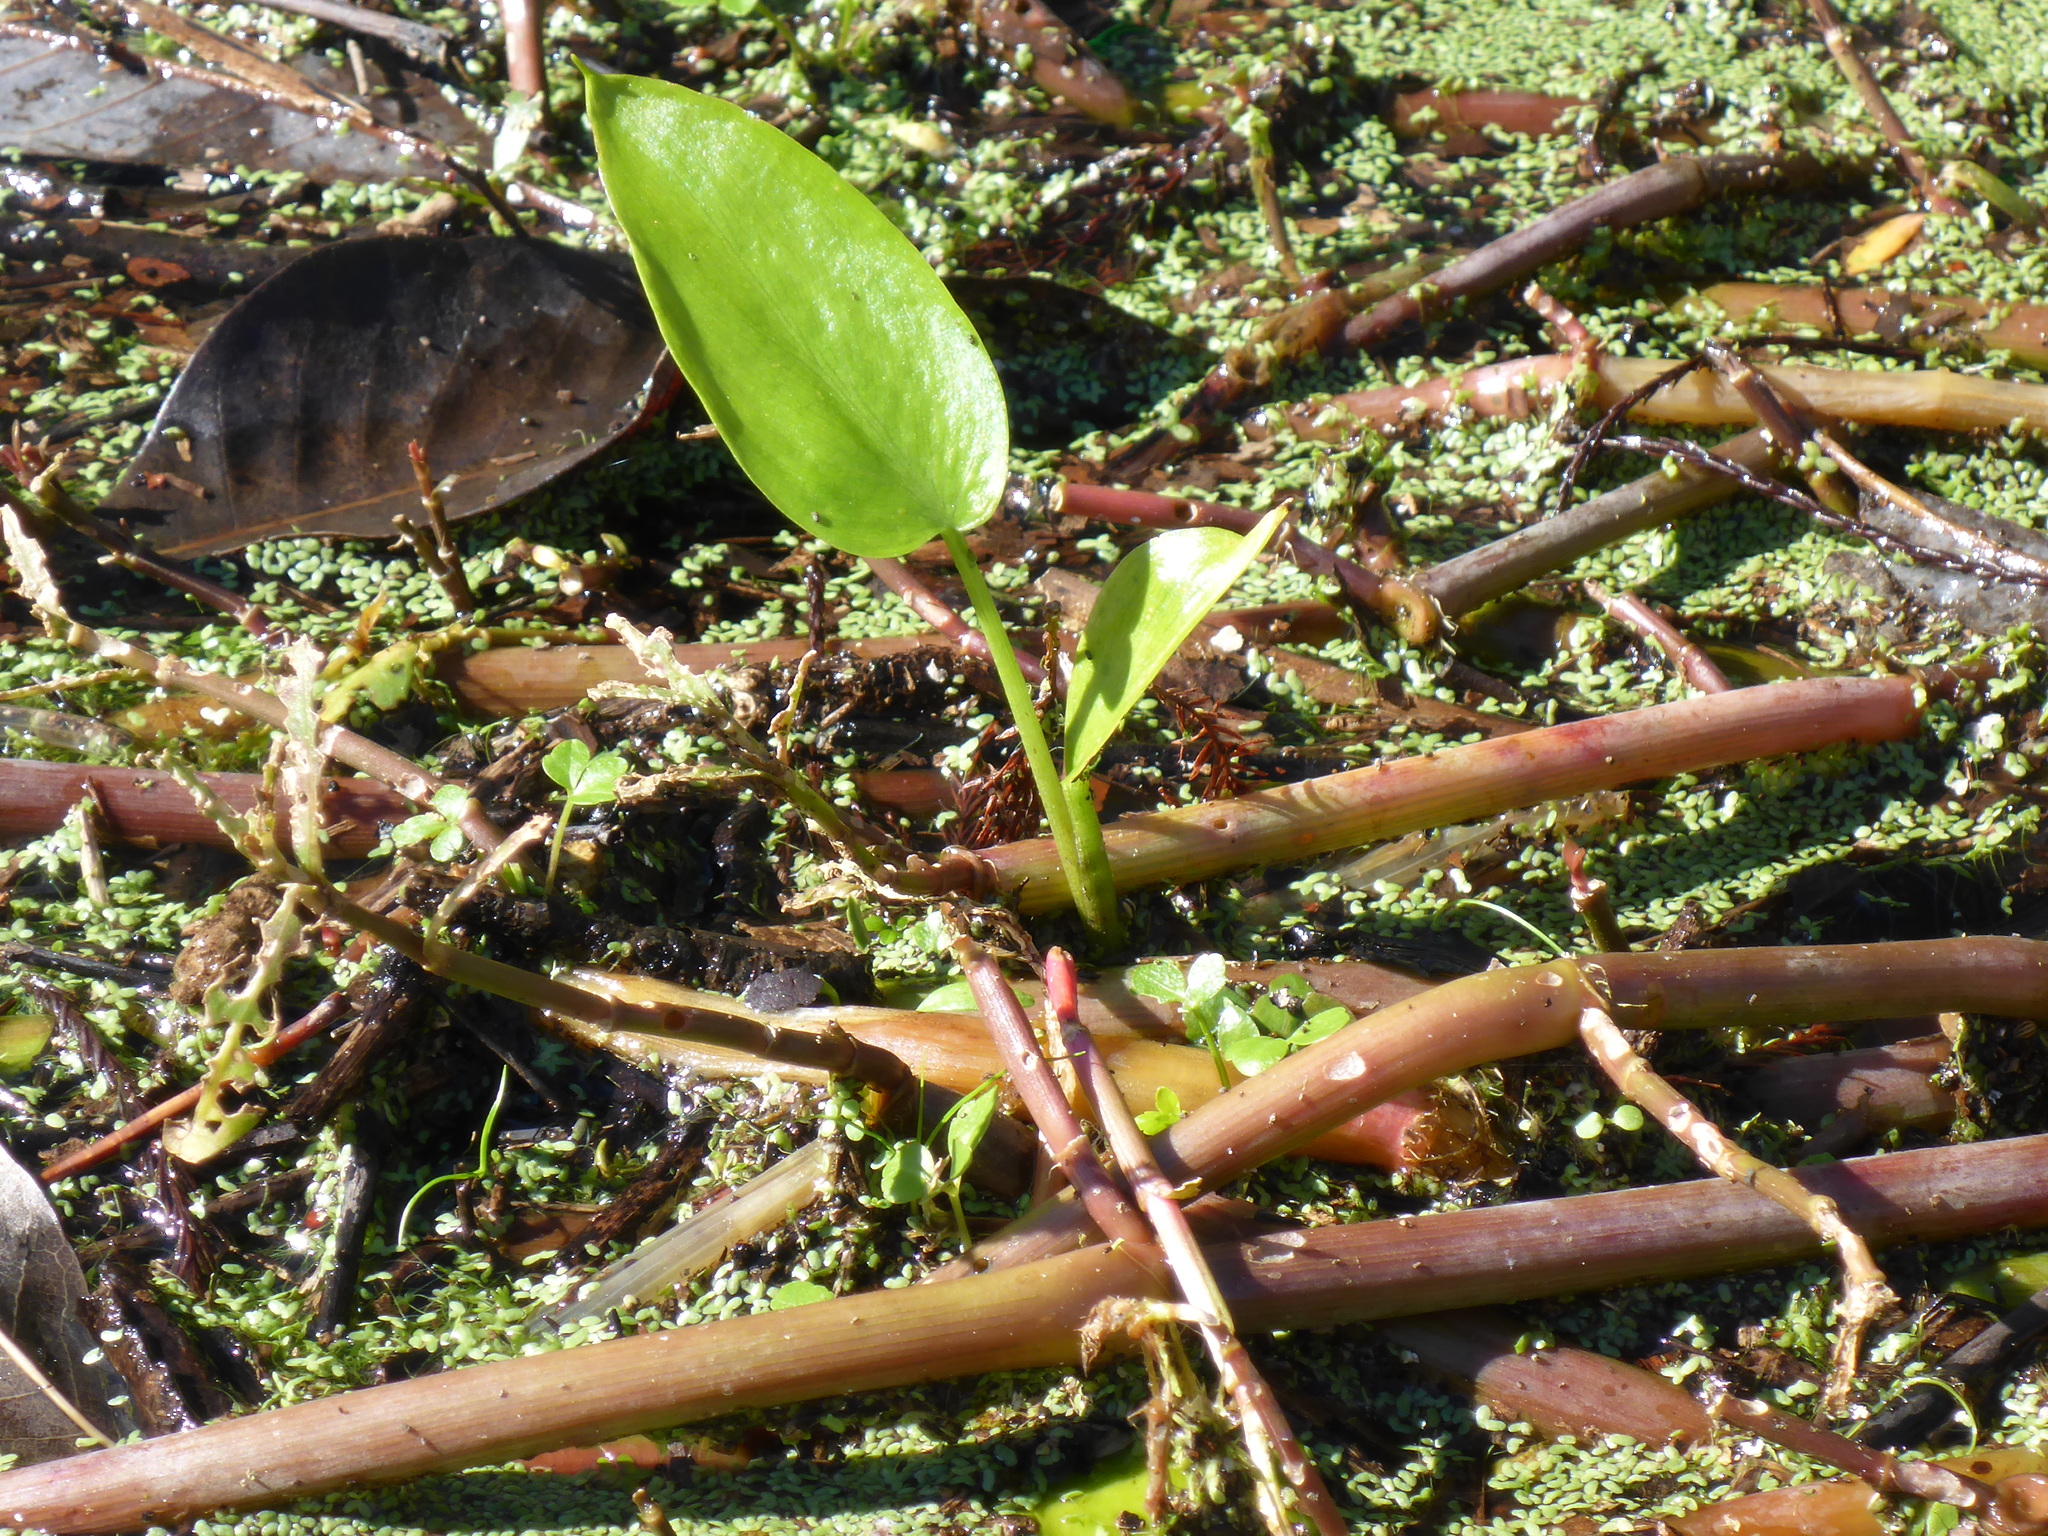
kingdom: Plantae
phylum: Tracheophyta
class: Magnoliopsida
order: Caryophyllales
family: Amaranthaceae
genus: Alternanthera
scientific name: Alternanthera philoxeroides
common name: Alligatorweed
